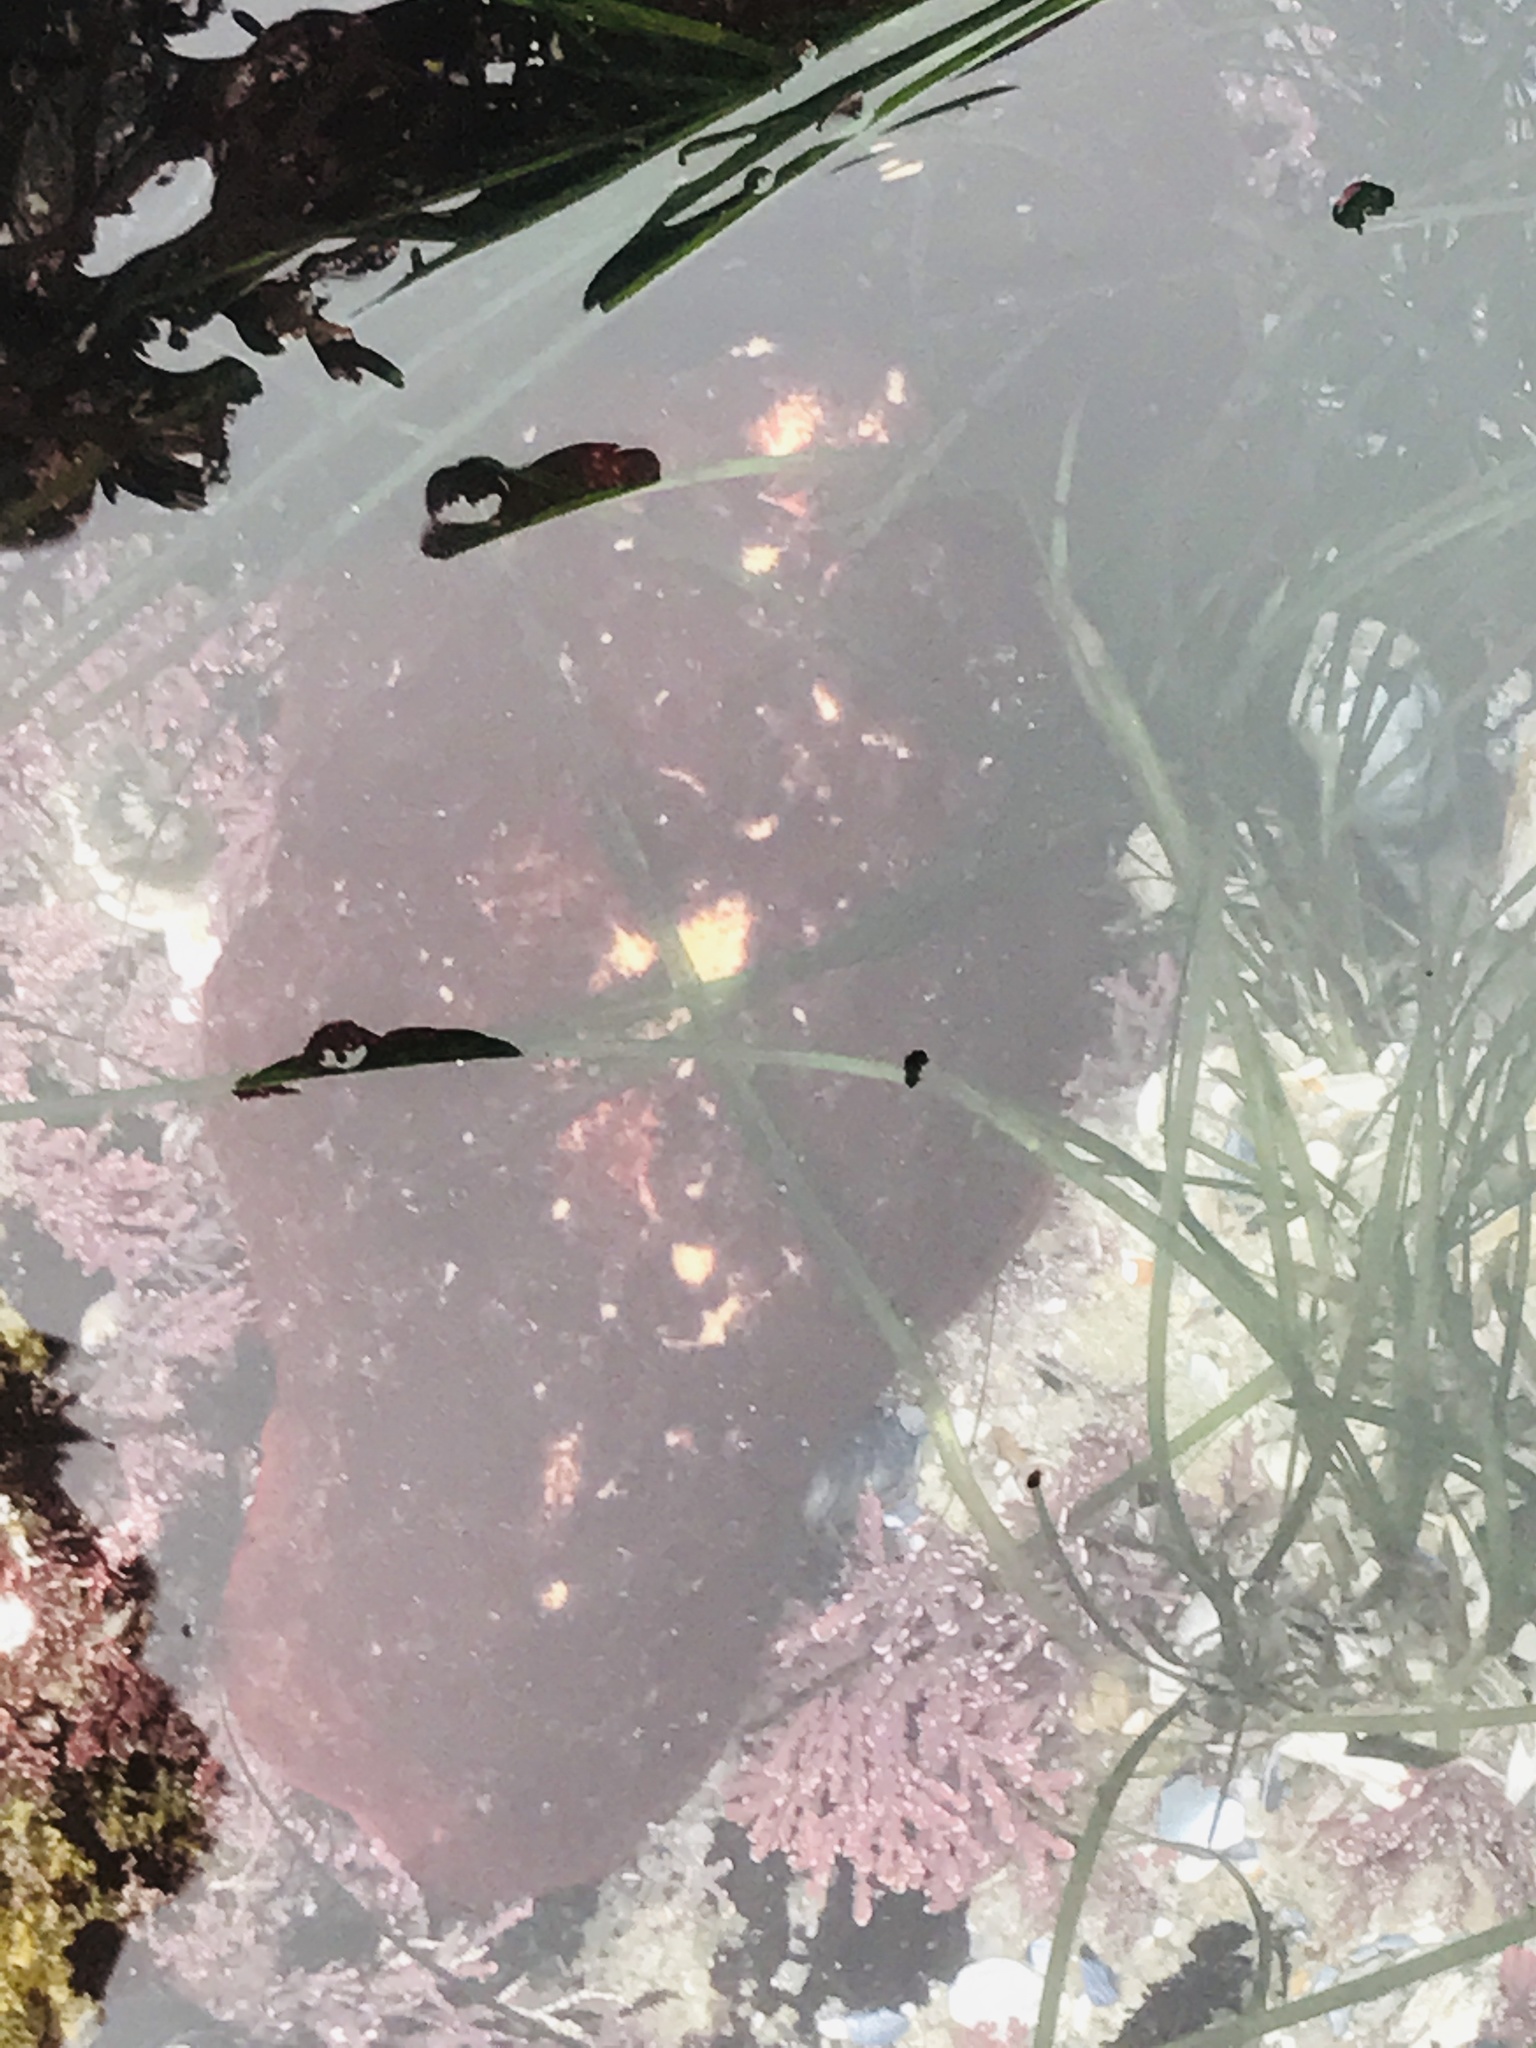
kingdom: Animalia
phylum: Mollusca
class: Polyplacophora
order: Chitonida
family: Acanthochitonidae
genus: Cryptochiton
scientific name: Cryptochiton stelleri
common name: Giant pacific chiton
